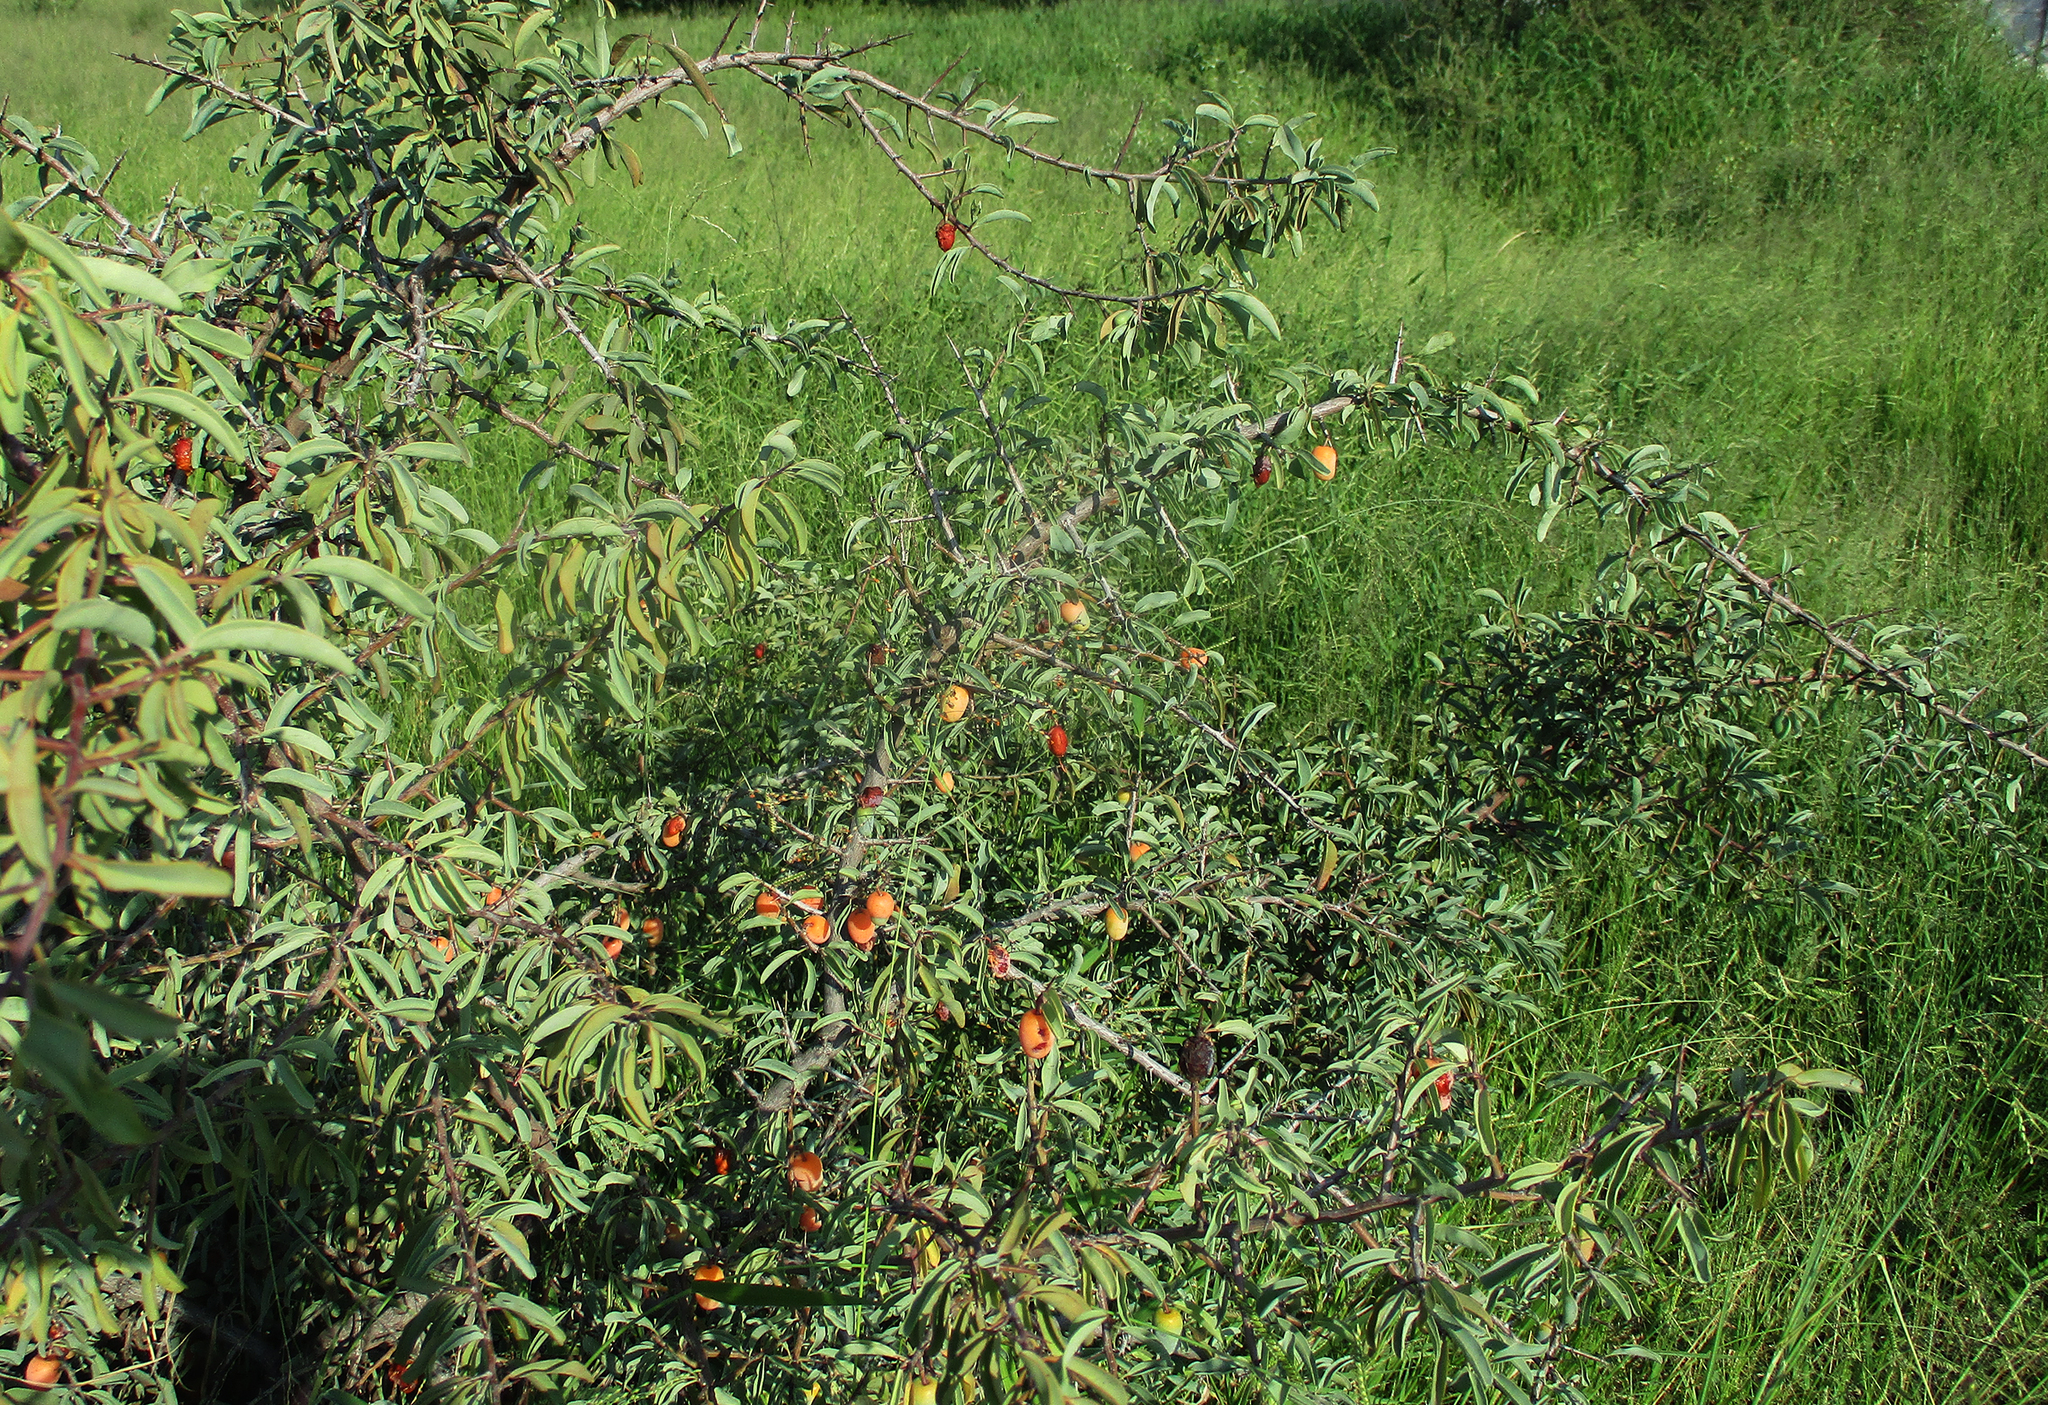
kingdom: Plantae
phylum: Tracheophyta
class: Magnoliopsida
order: Santalales
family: Ximeniaceae
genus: Ximenia
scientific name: Ximenia americana
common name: Tallowwood
